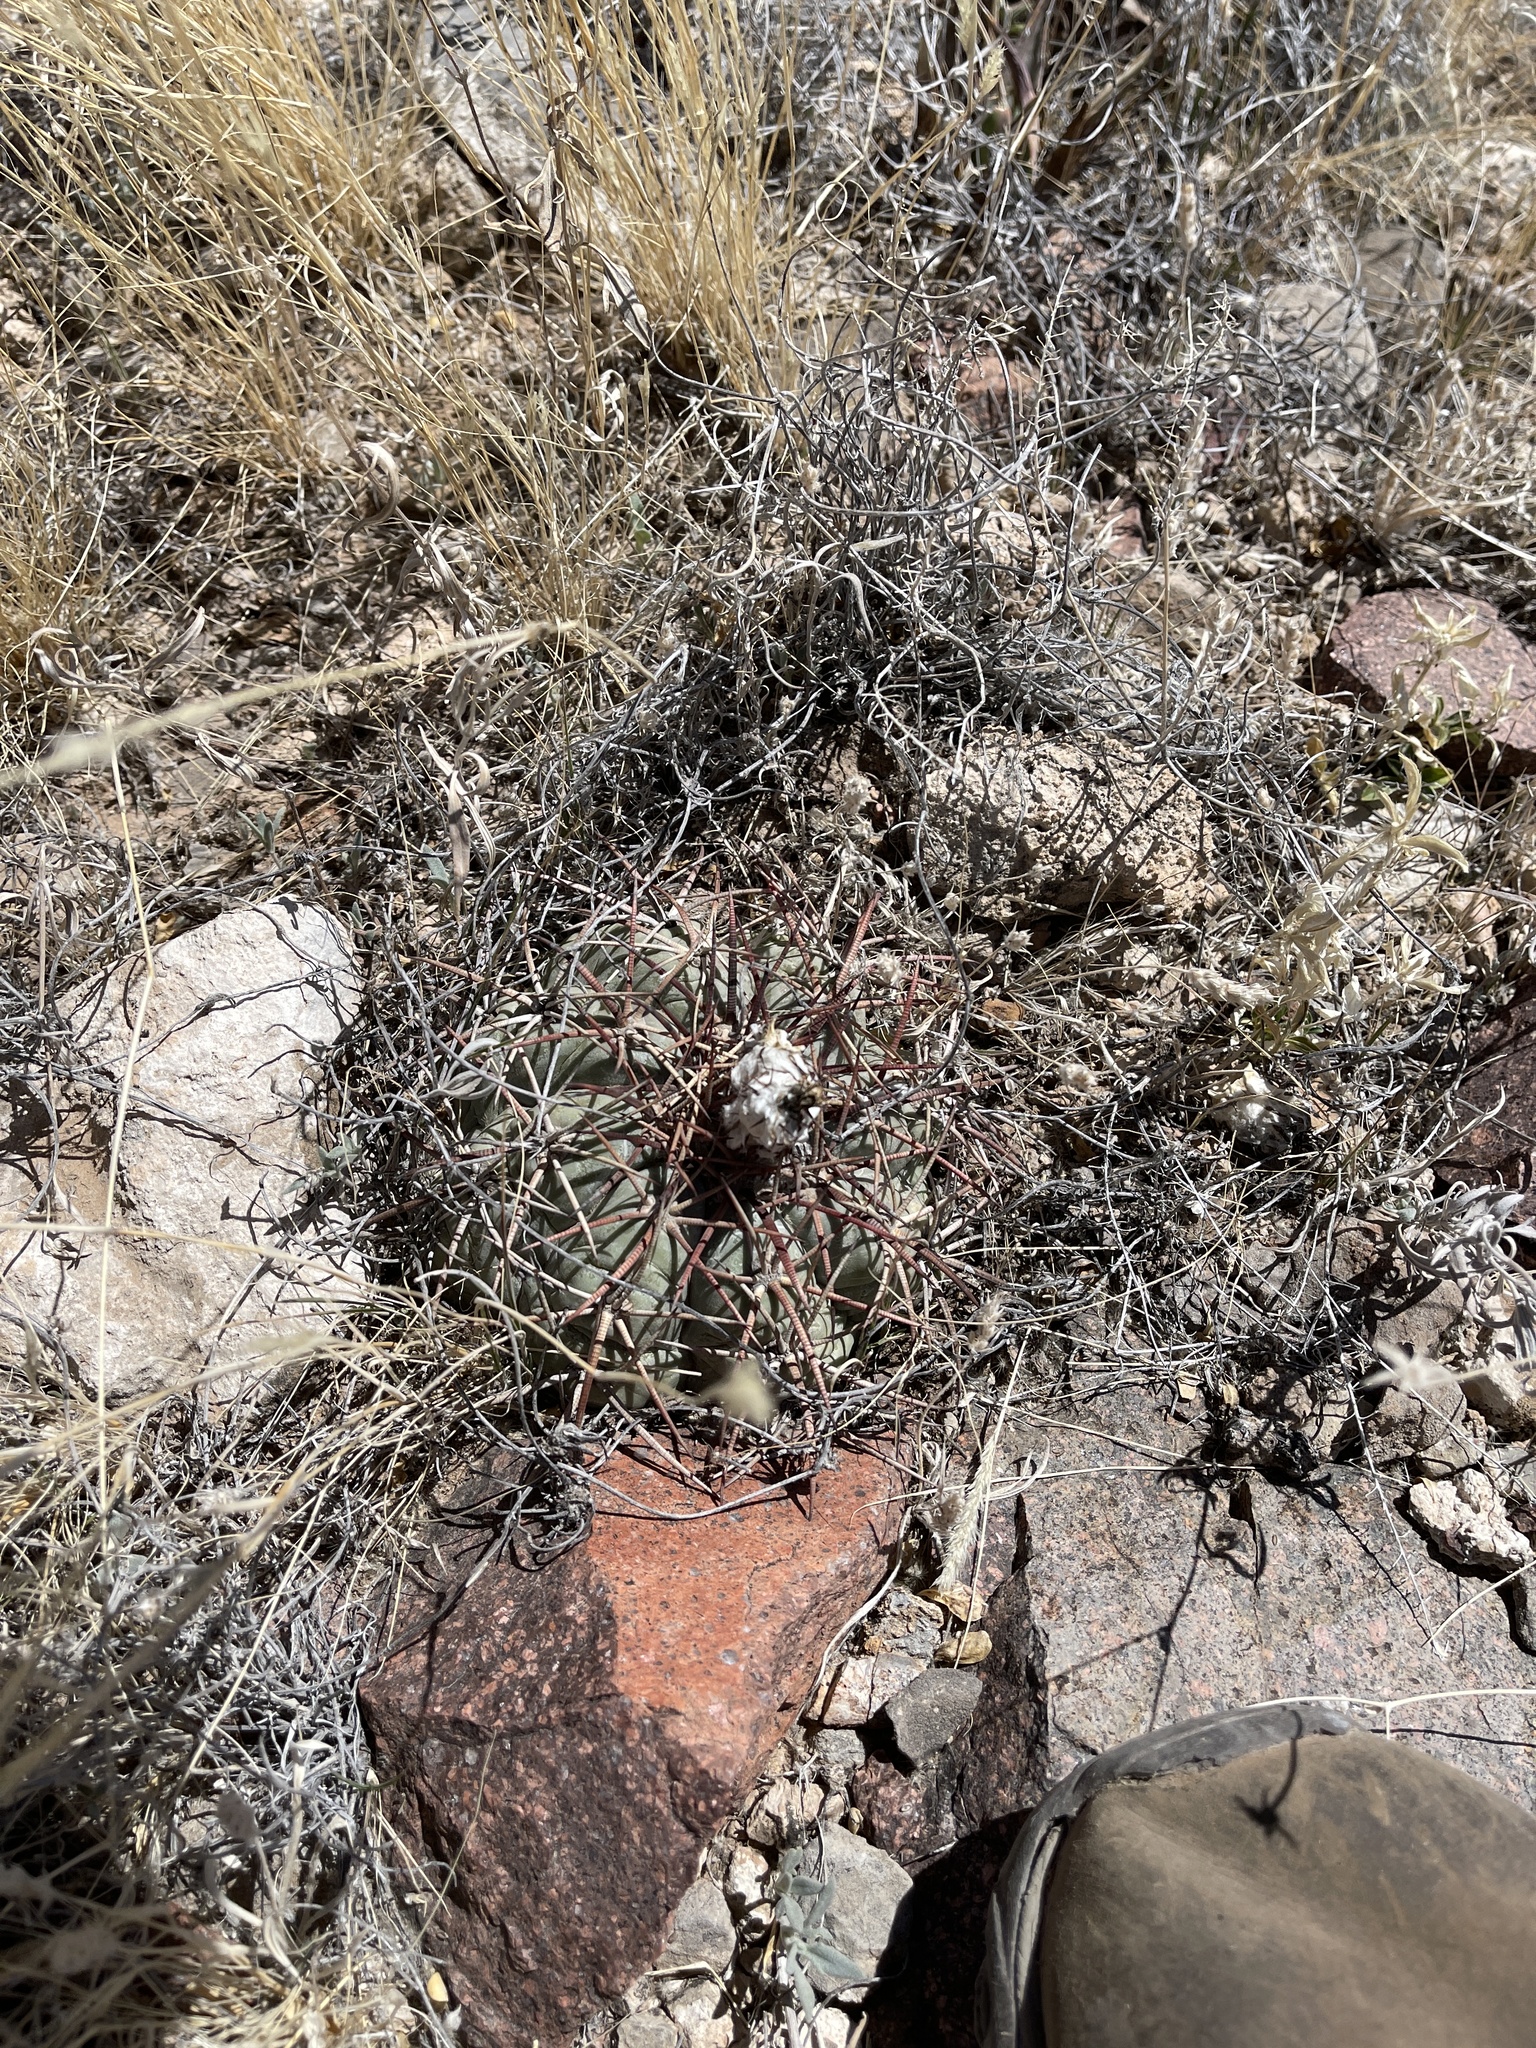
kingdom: Plantae
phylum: Tracheophyta
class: Magnoliopsida
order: Caryophyllales
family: Cactaceae
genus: Echinocactus
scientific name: Echinocactus horizonthalonius
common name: Devilshead
